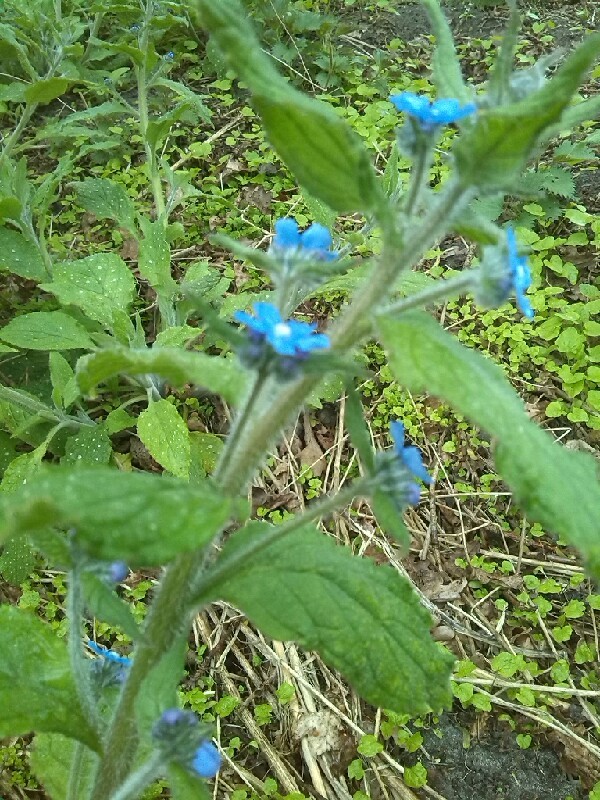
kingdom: Plantae
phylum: Tracheophyta
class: Magnoliopsida
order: Boraginales
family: Boraginaceae
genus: Pentaglottis
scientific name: Pentaglottis sempervirens
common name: Green alkanet
